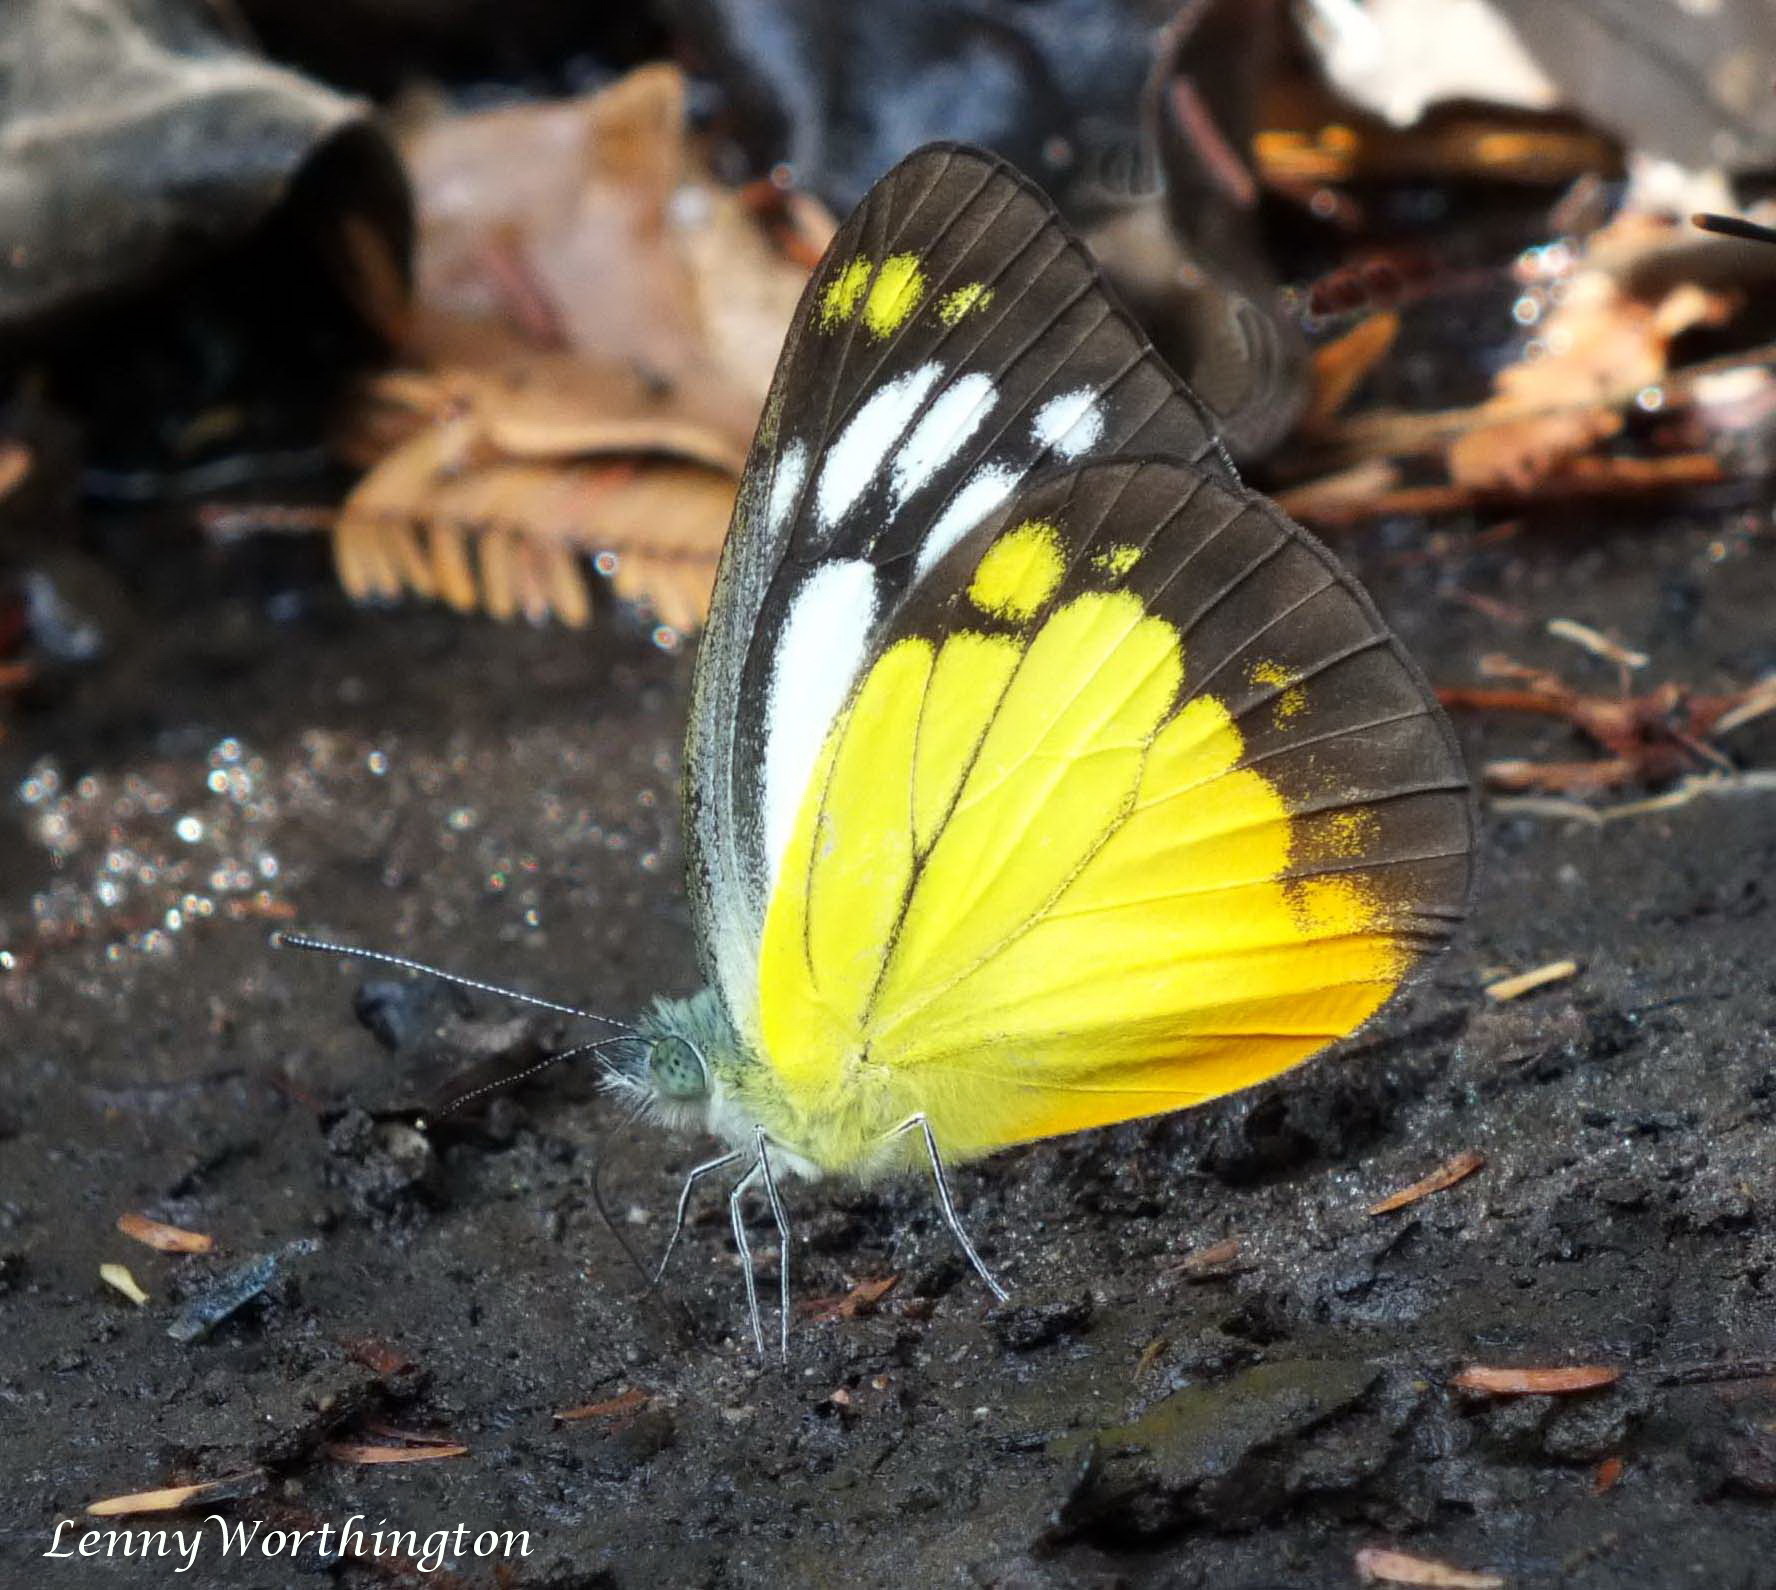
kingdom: Animalia
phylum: Arthropoda
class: Insecta
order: Lepidoptera
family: Pieridae
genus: Cepora
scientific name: Cepora iudith
